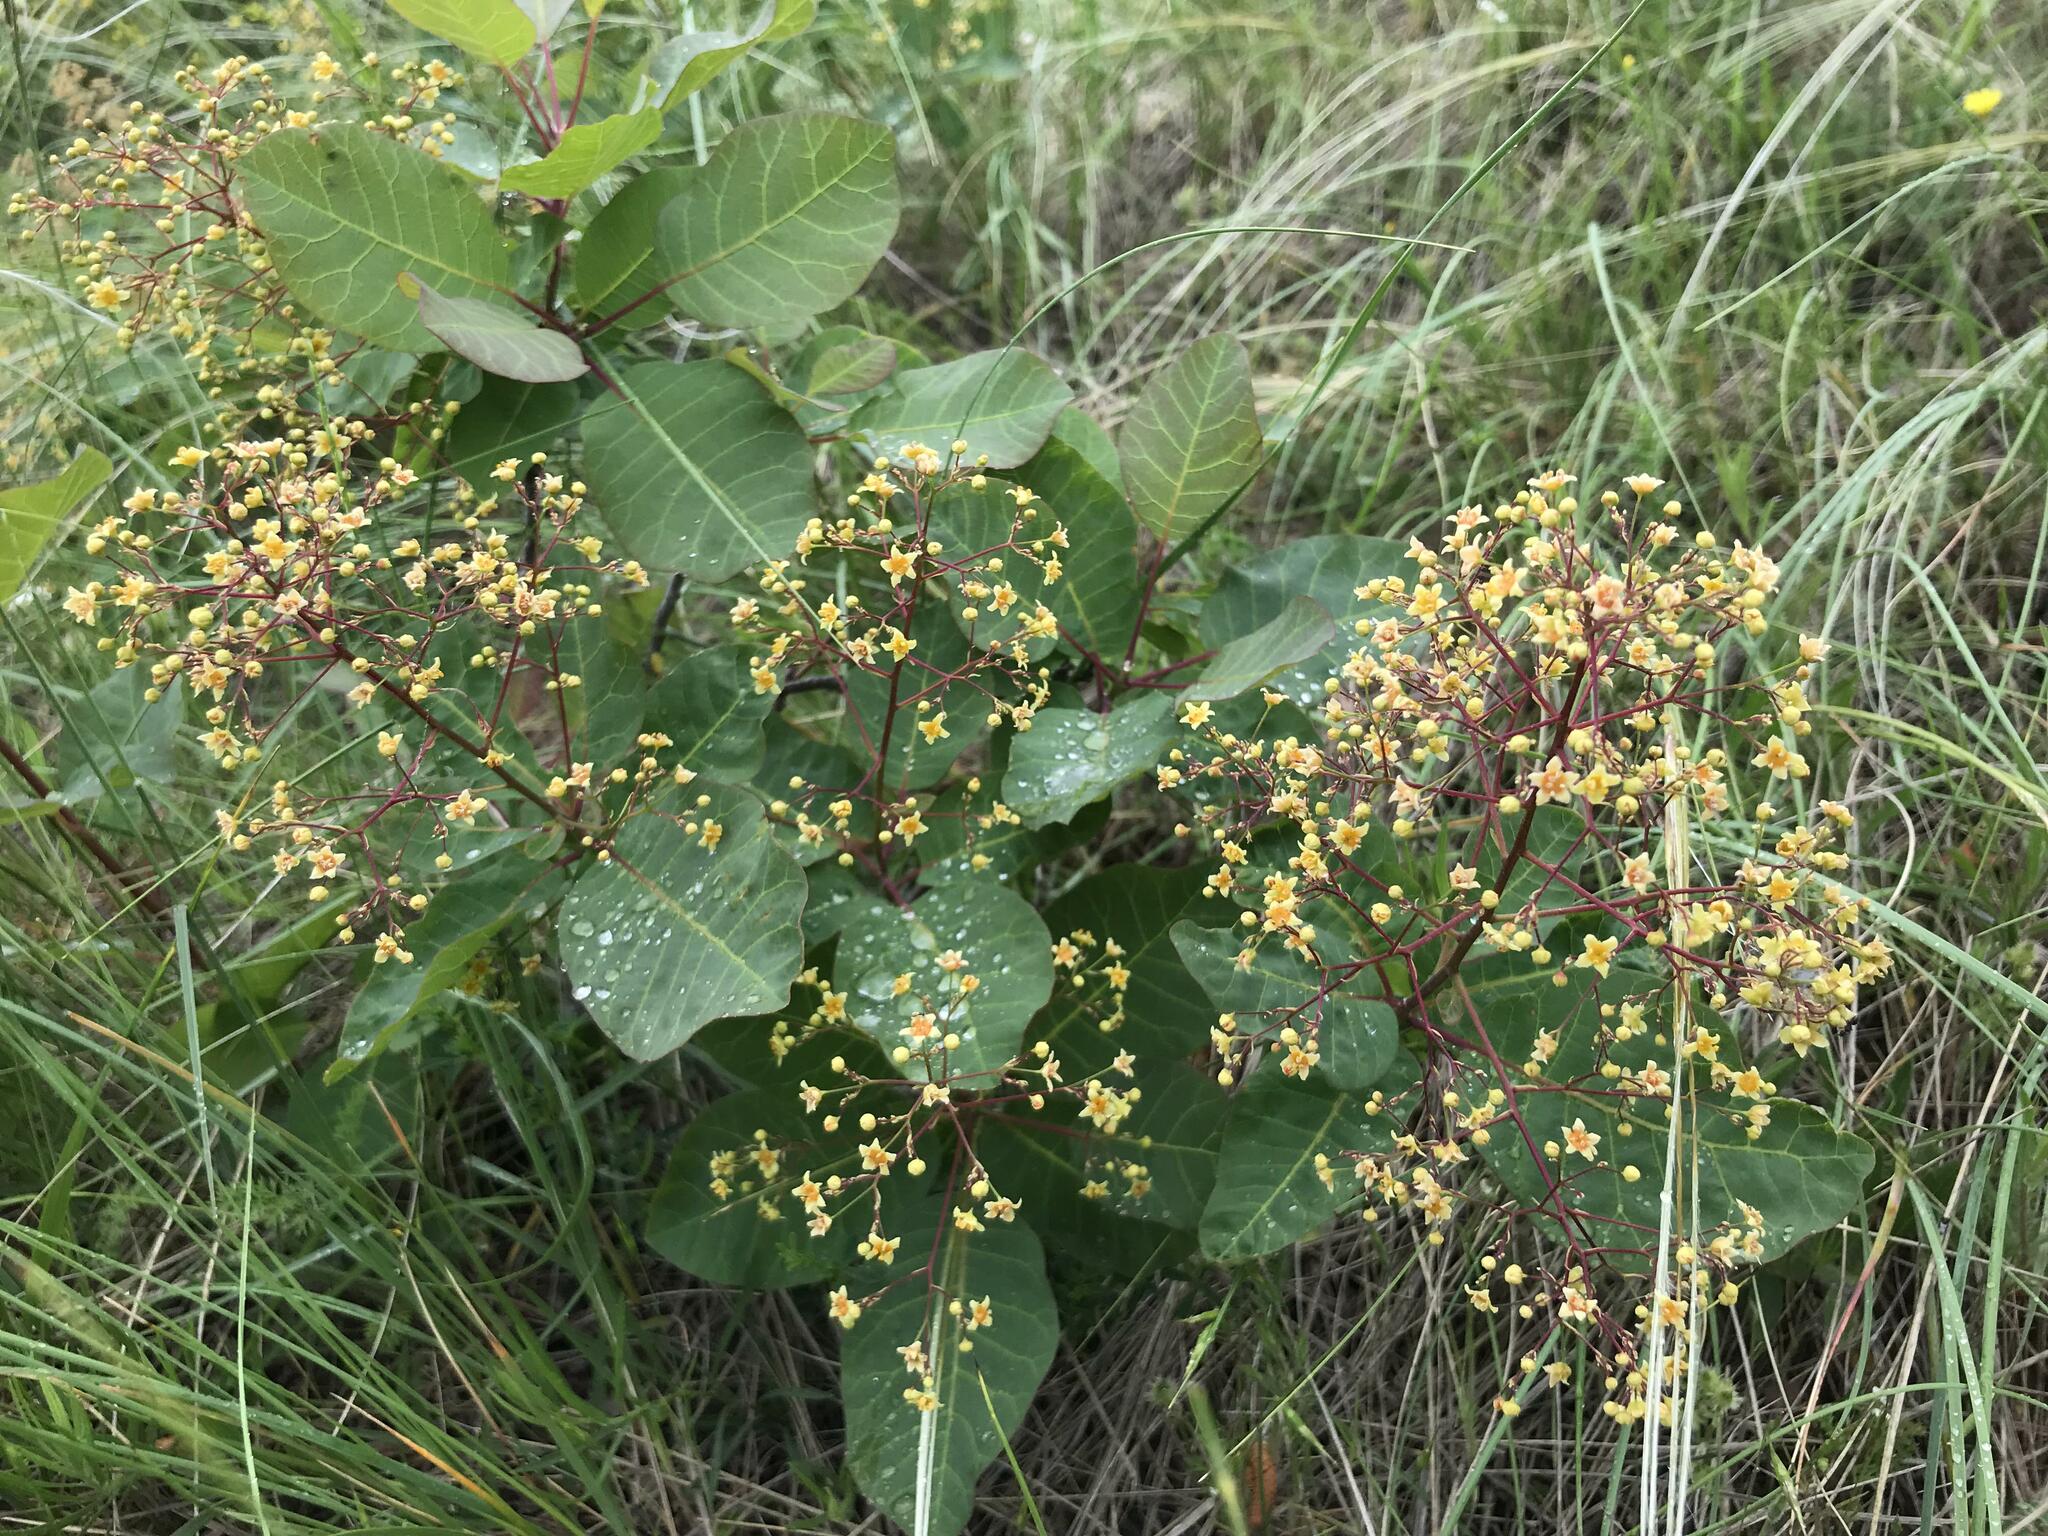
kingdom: Plantae
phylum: Tracheophyta
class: Magnoliopsida
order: Sapindales
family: Anacardiaceae
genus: Cotinus
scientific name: Cotinus coggygria
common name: Smoke-tree
